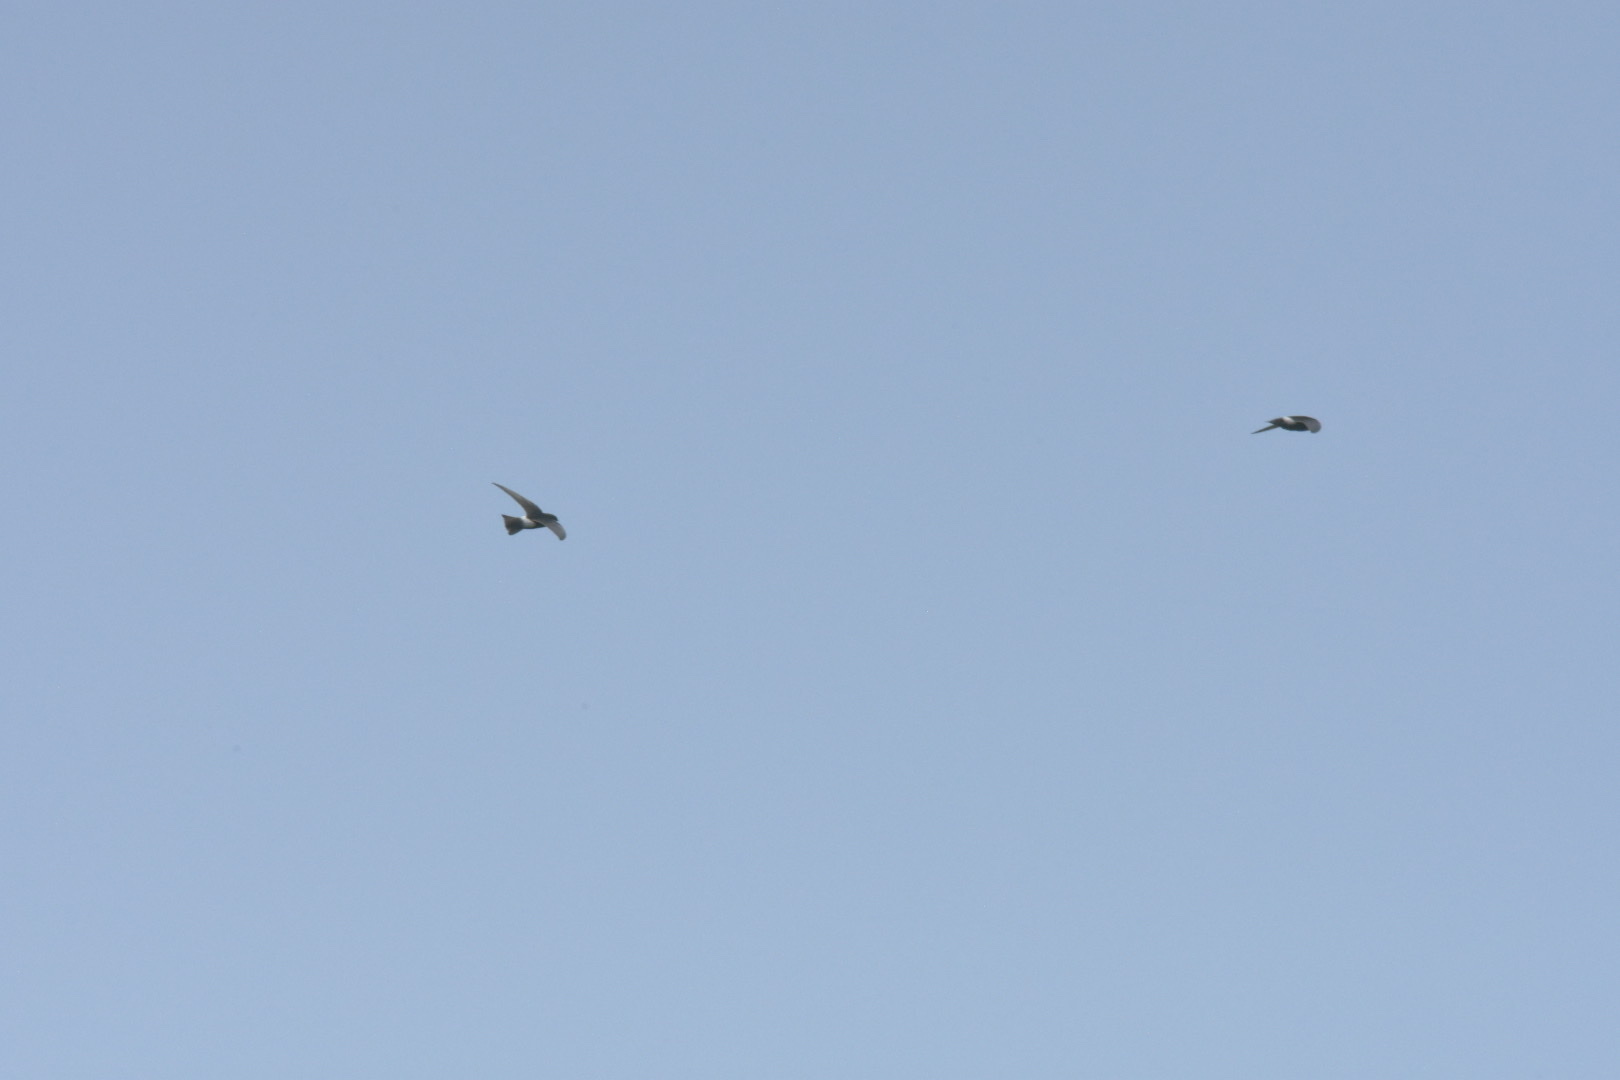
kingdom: Animalia
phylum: Chordata
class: Aves
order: Apodiformes
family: Apodidae
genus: Apus
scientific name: Apus affinis
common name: Little swift
